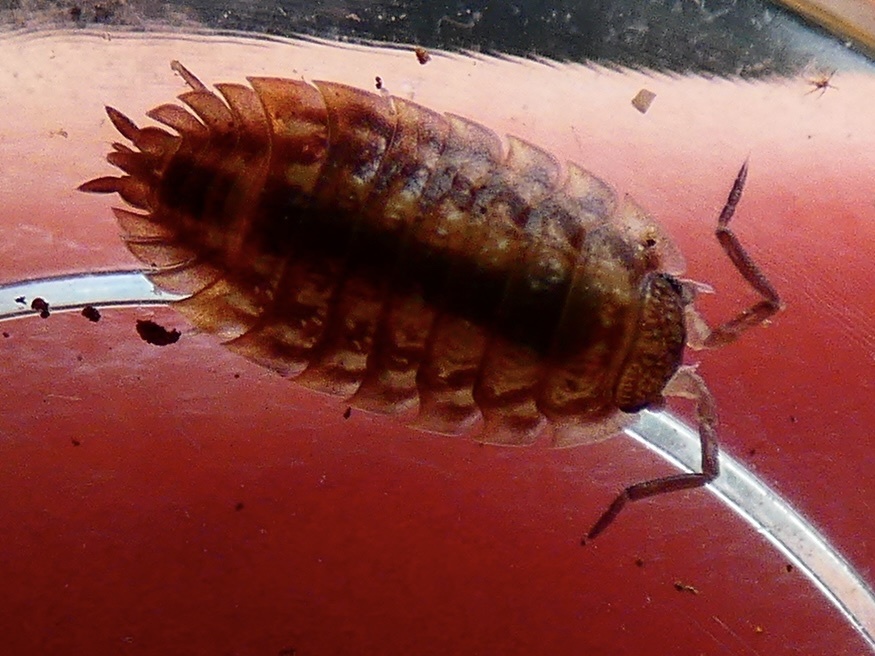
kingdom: Animalia
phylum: Arthropoda
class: Malacostraca
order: Isopoda
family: Oniscidae
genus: Oniscus
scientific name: Oniscus asellus
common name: Common shiny woodlouse
